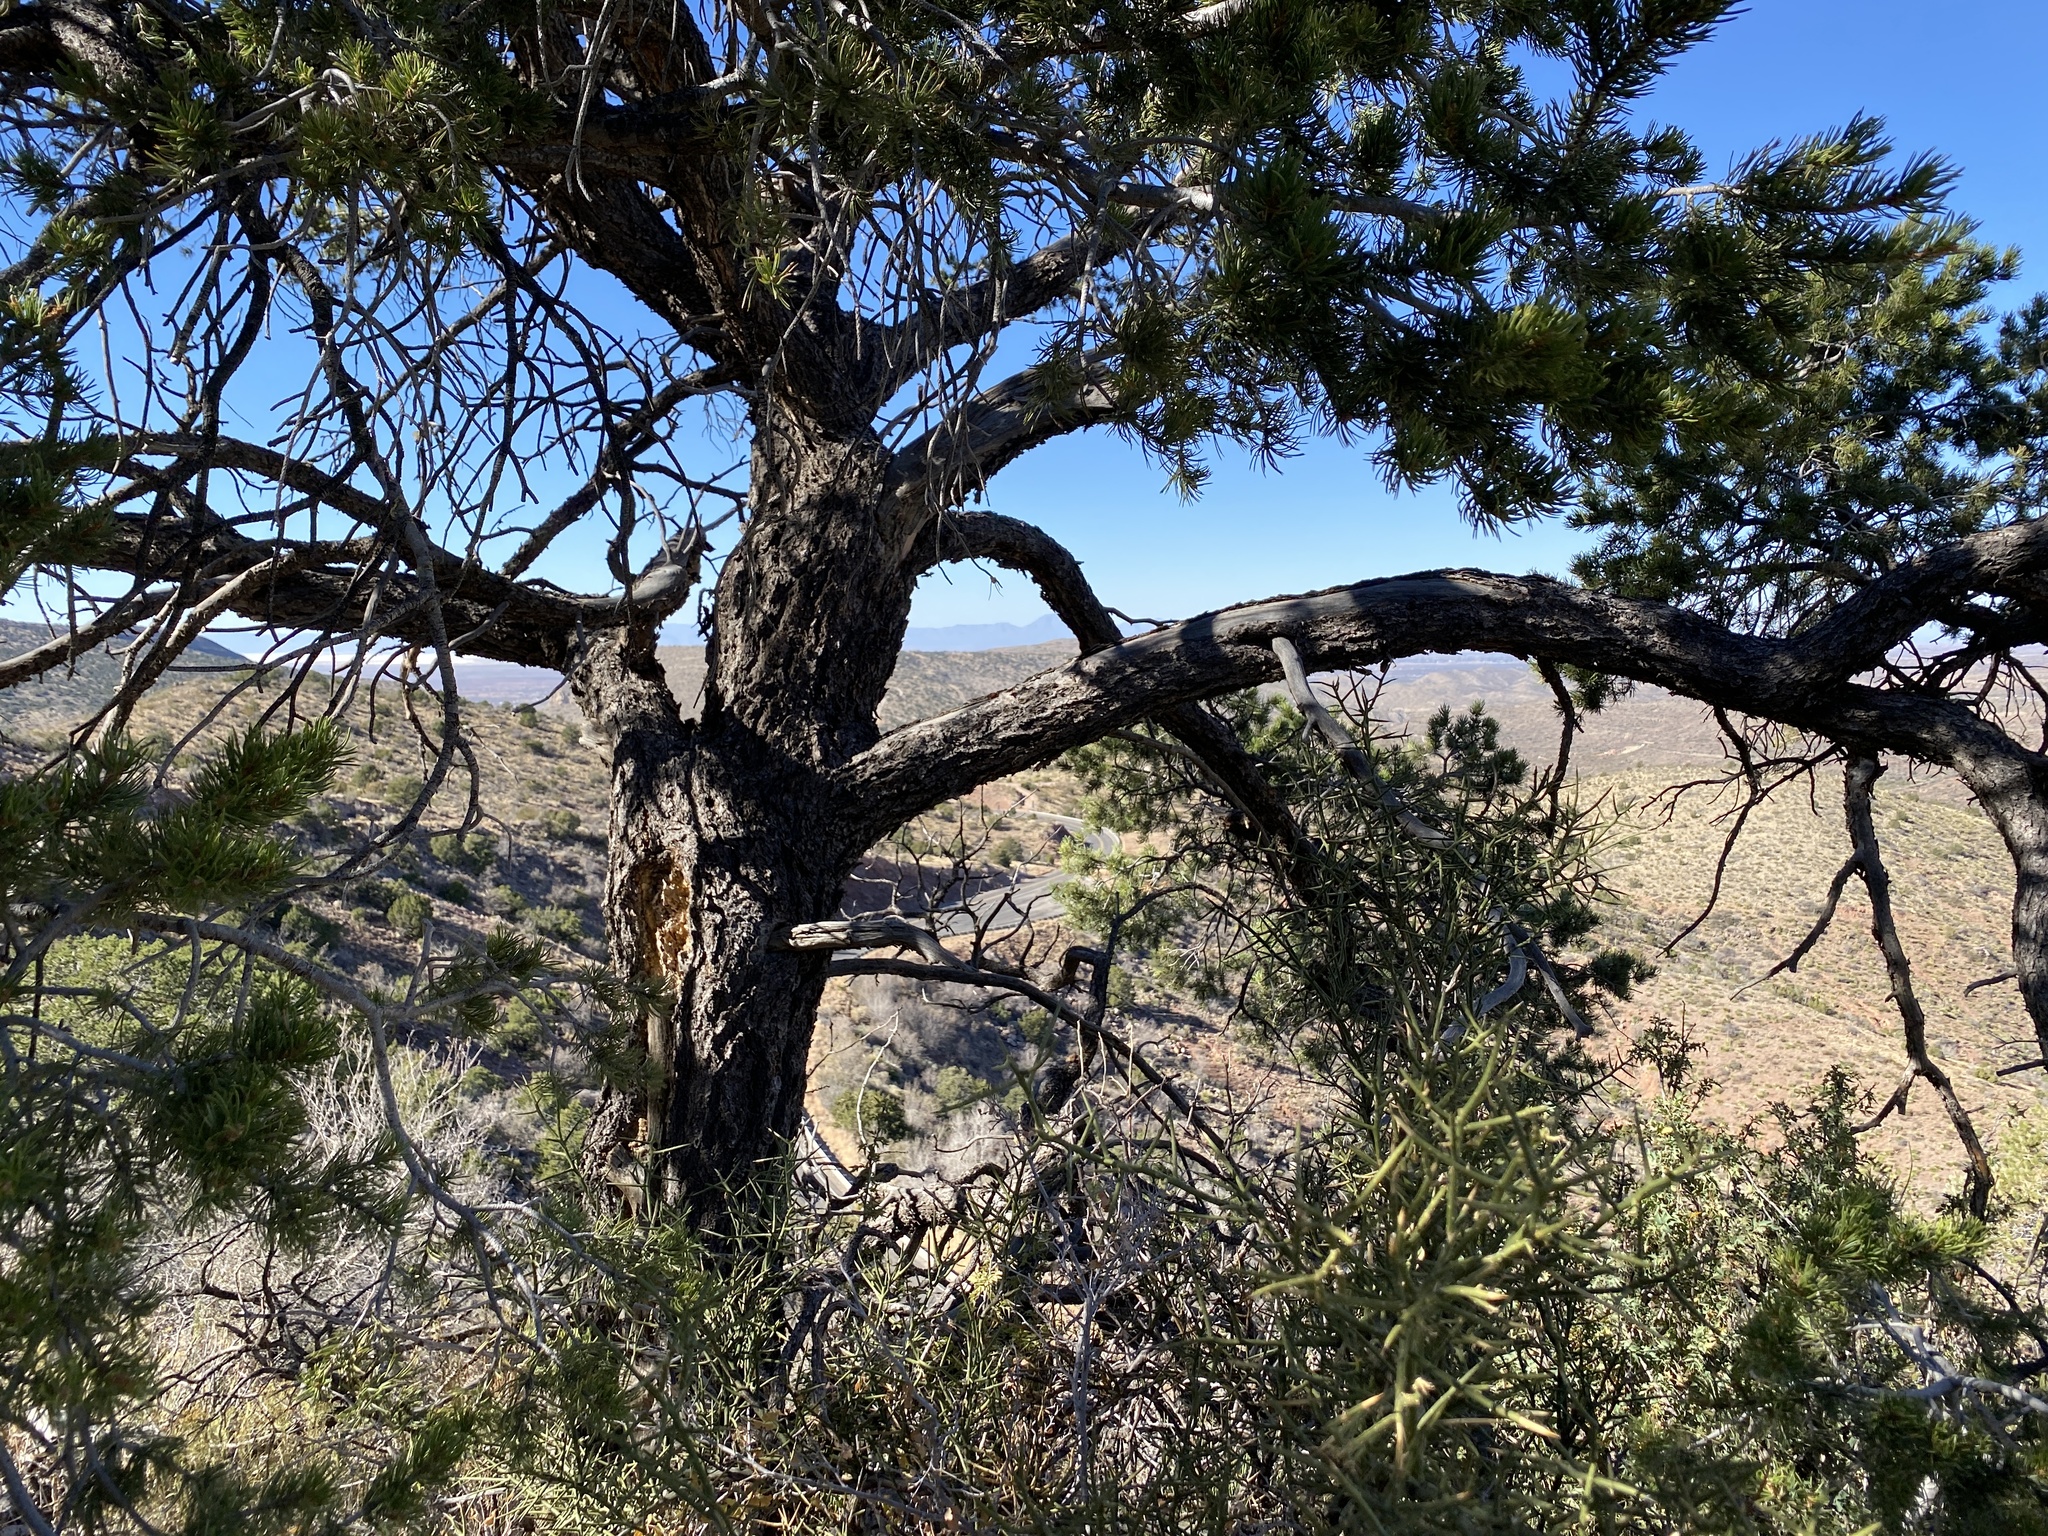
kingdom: Plantae
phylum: Tracheophyta
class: Pinopsida
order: Pinales
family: Pinaceae
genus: Pinus
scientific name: Pinus edulis
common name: Colorado pinyon
